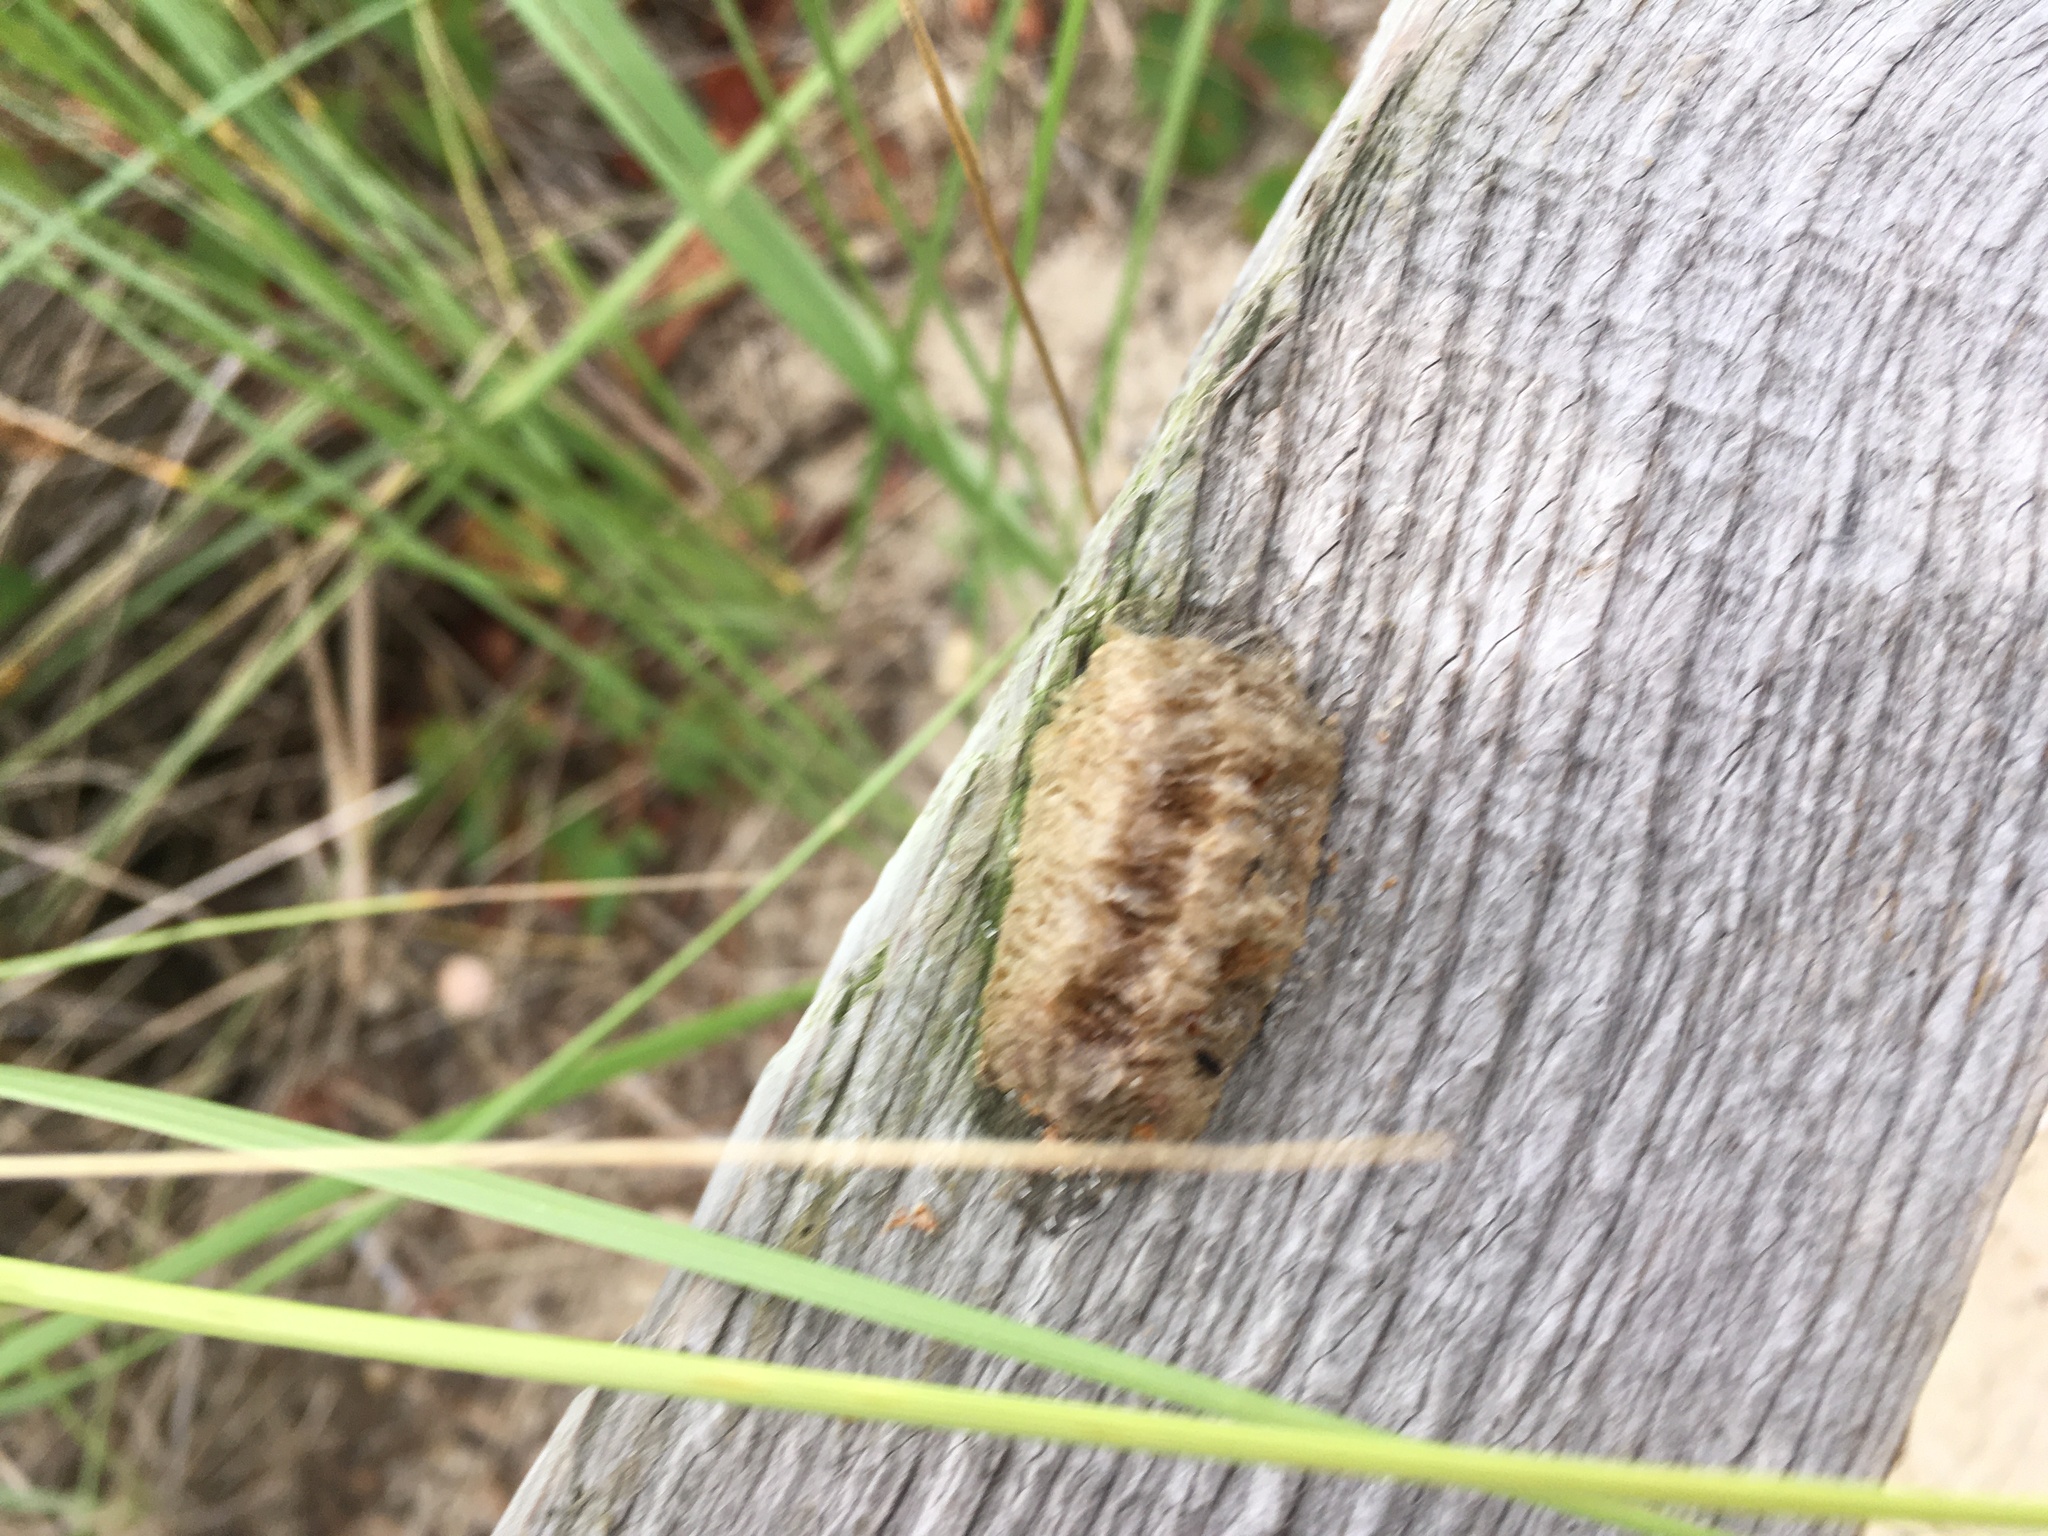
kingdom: Animalia
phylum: Arthropoda
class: Insecta
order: Mantodea
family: Mantidae
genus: Mantis
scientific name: Mantis religiosa
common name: Praying mantis
